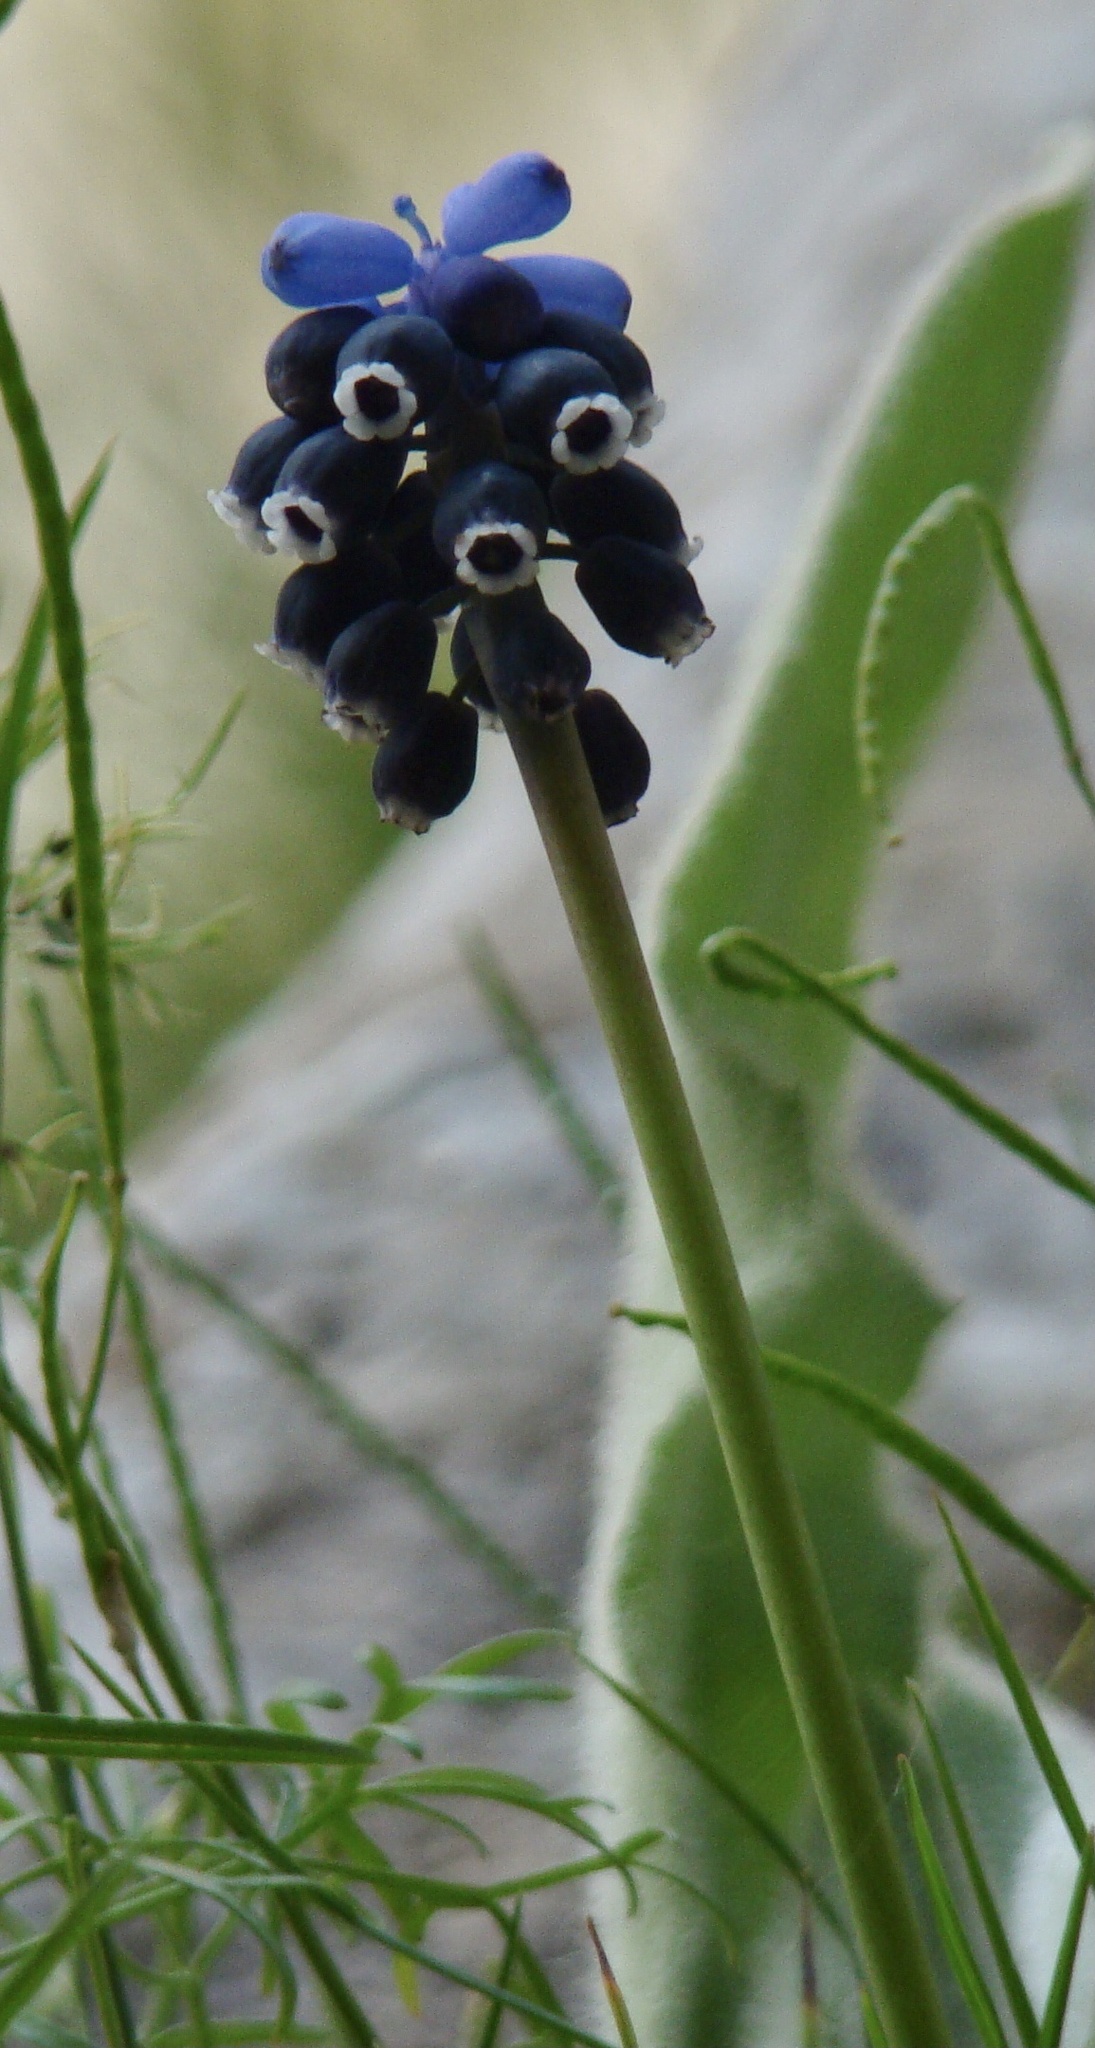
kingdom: Plantae
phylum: Tracheophyta
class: Liliopsida
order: Asparagales
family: Asparagaceae
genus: Muscari
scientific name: Muscari neglectum
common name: Grape-hyacinth
